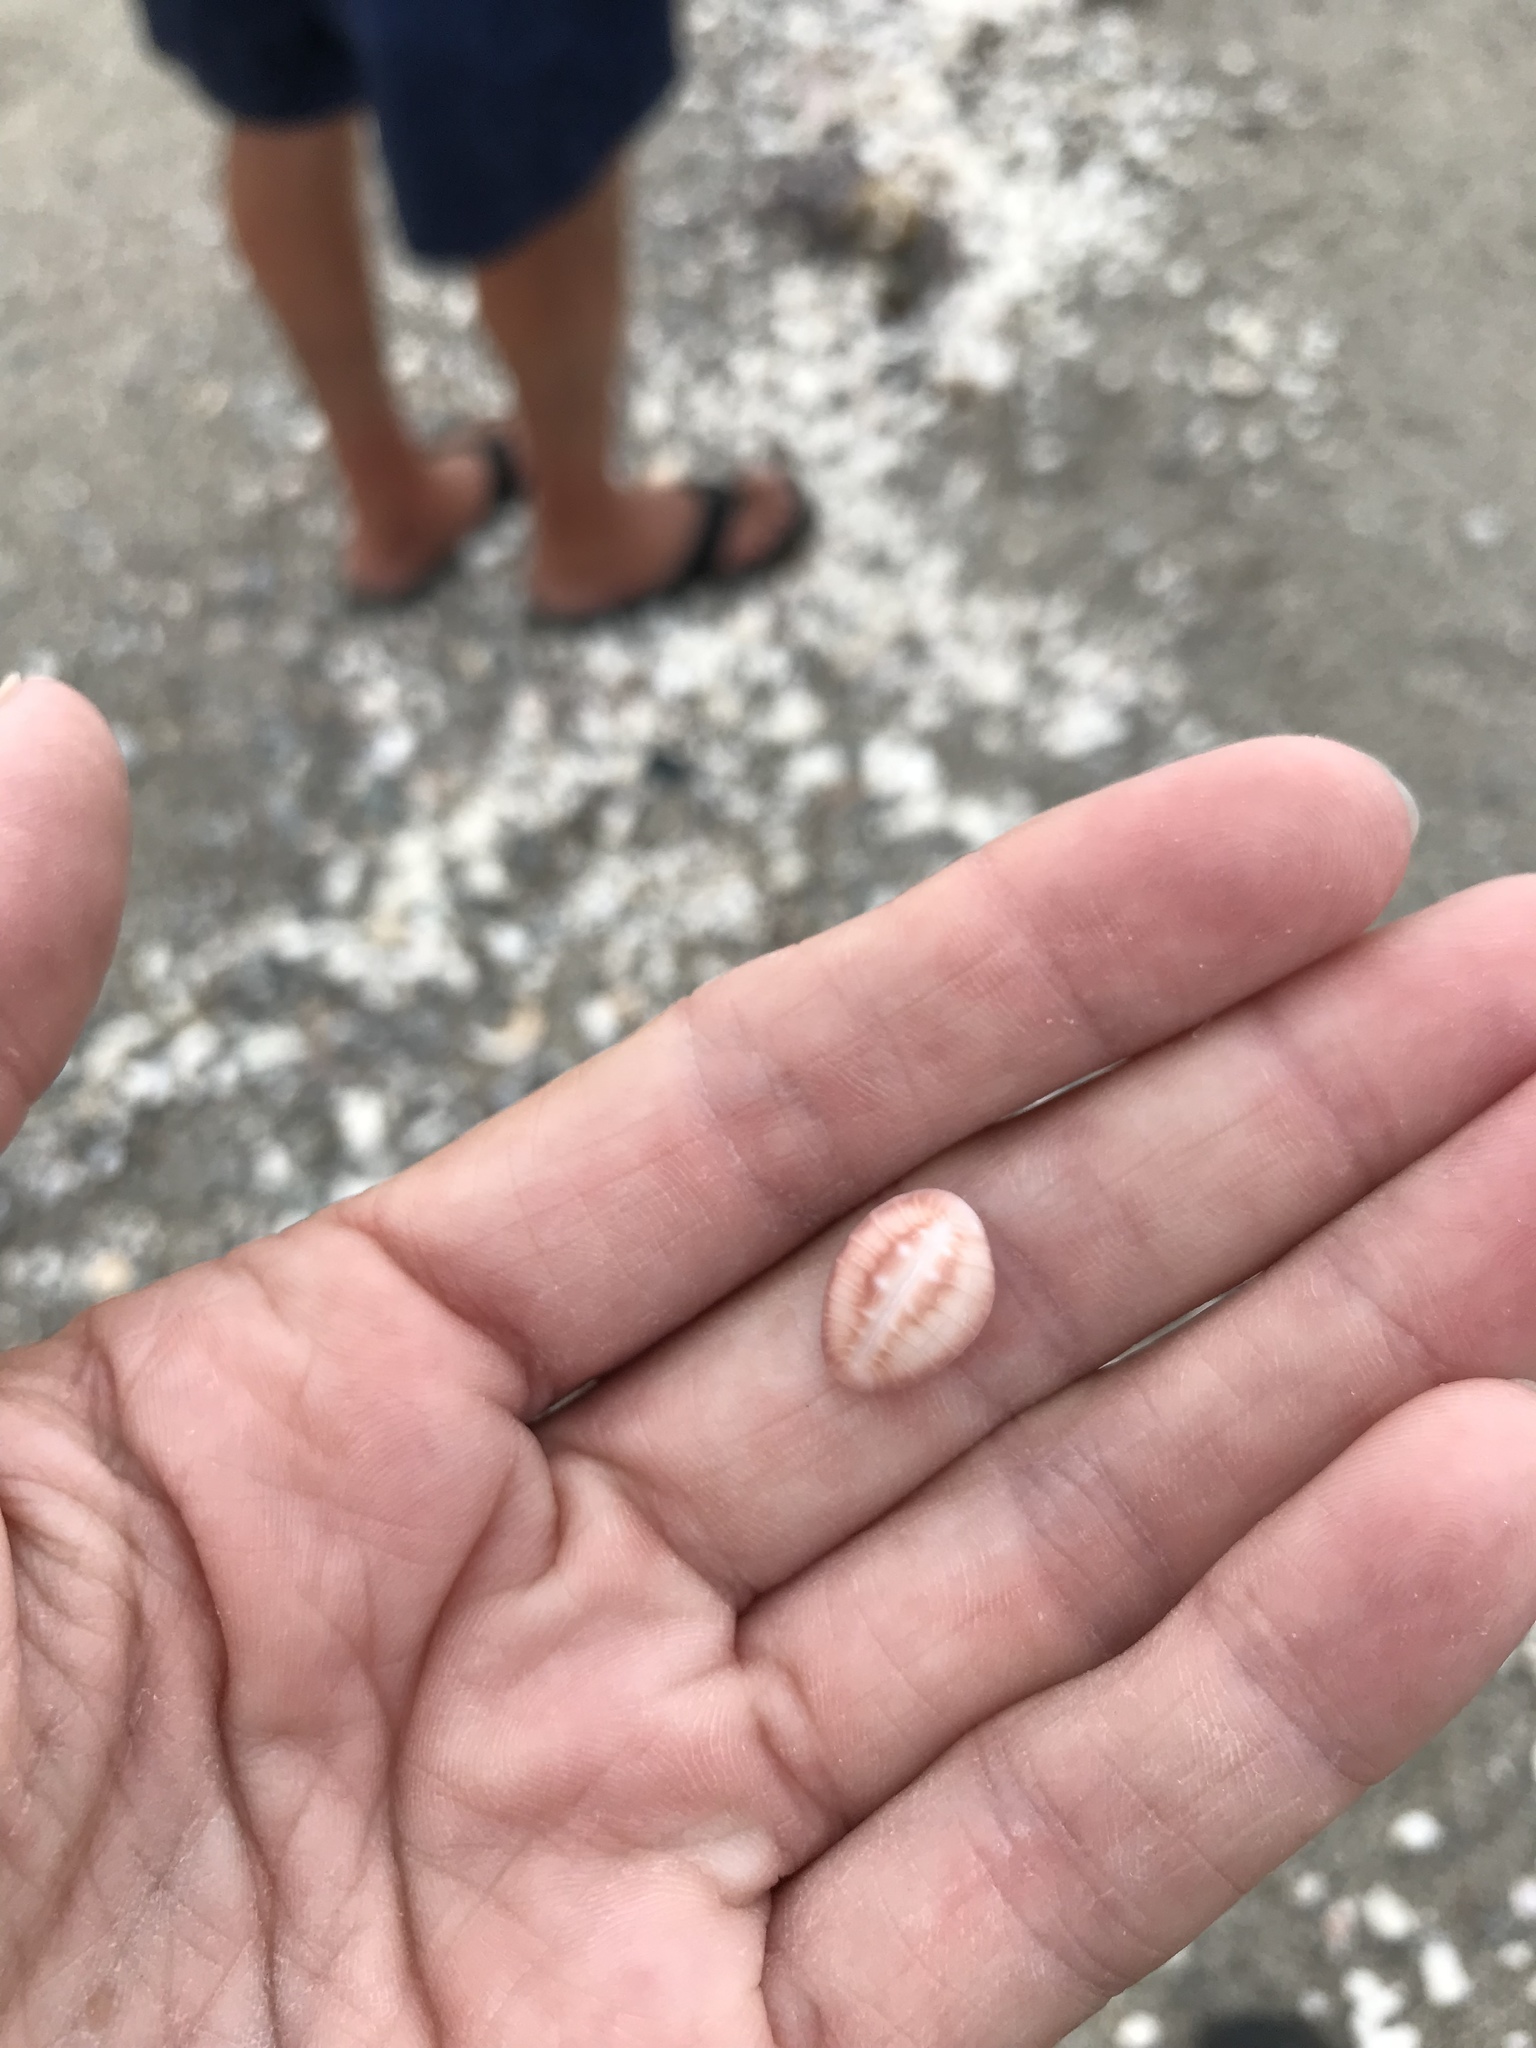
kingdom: Animalia
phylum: Mollusca
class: Gastropoda
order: Littorinimorpha
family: Triviidae
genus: Pusula
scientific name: Pusula solandri
